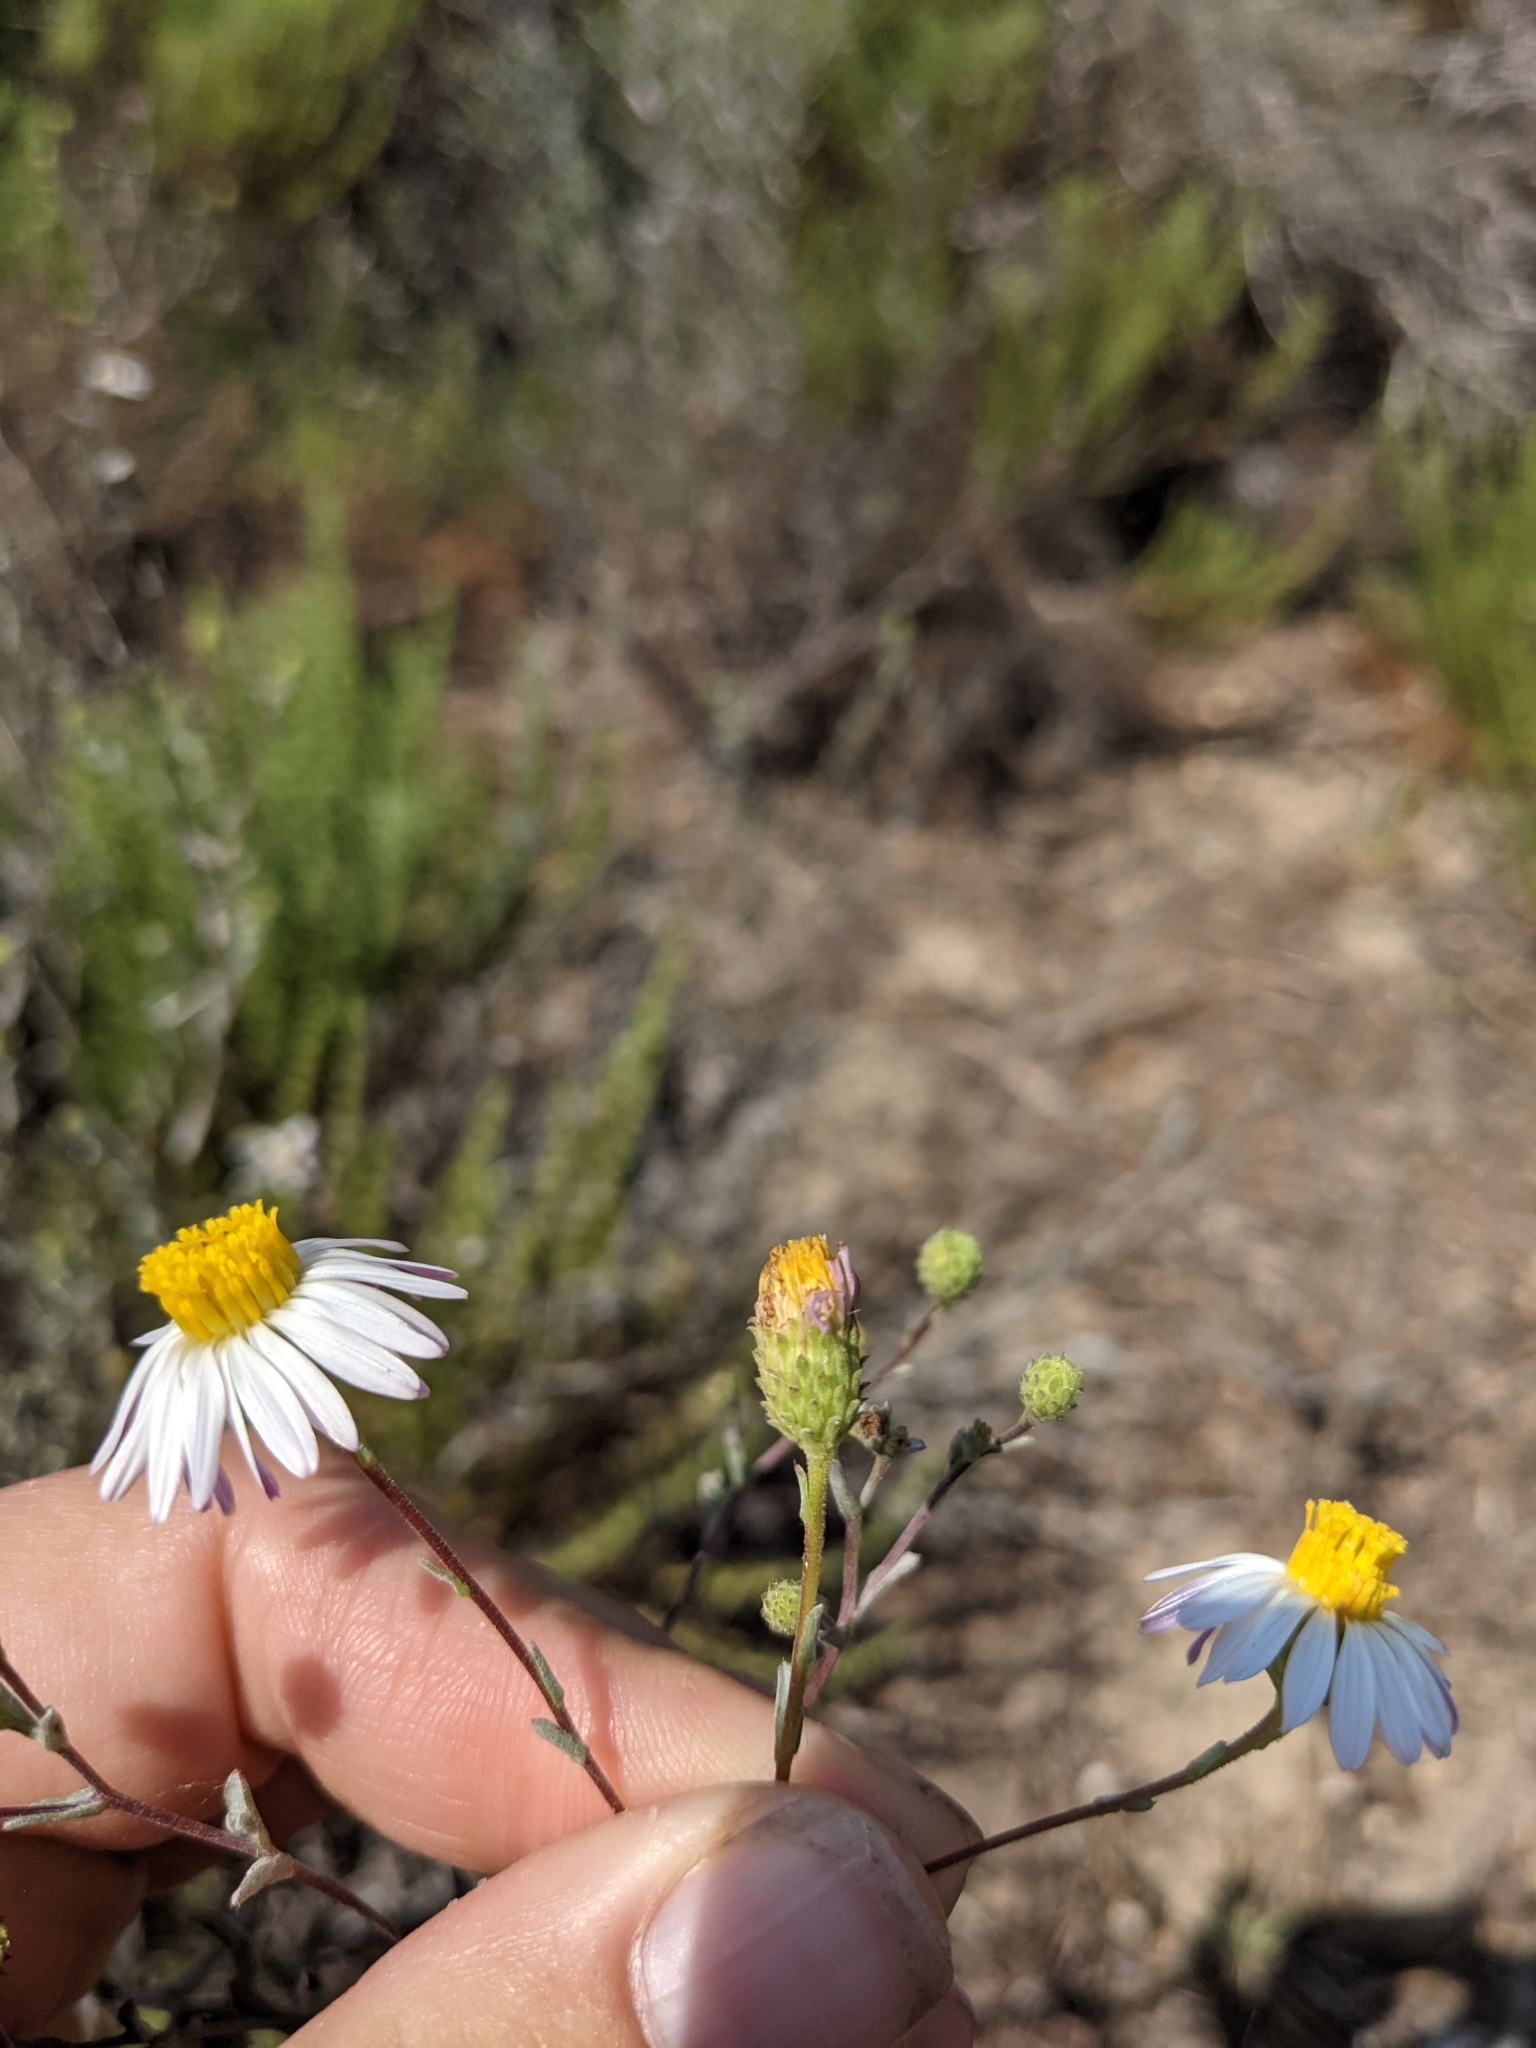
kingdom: Plantae
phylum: Tracheophyta
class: Magnoliopsida
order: Asterales
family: Asteraceae
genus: Corethrogyne
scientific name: Corethrogyne filaginifolia
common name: Sand-aster
